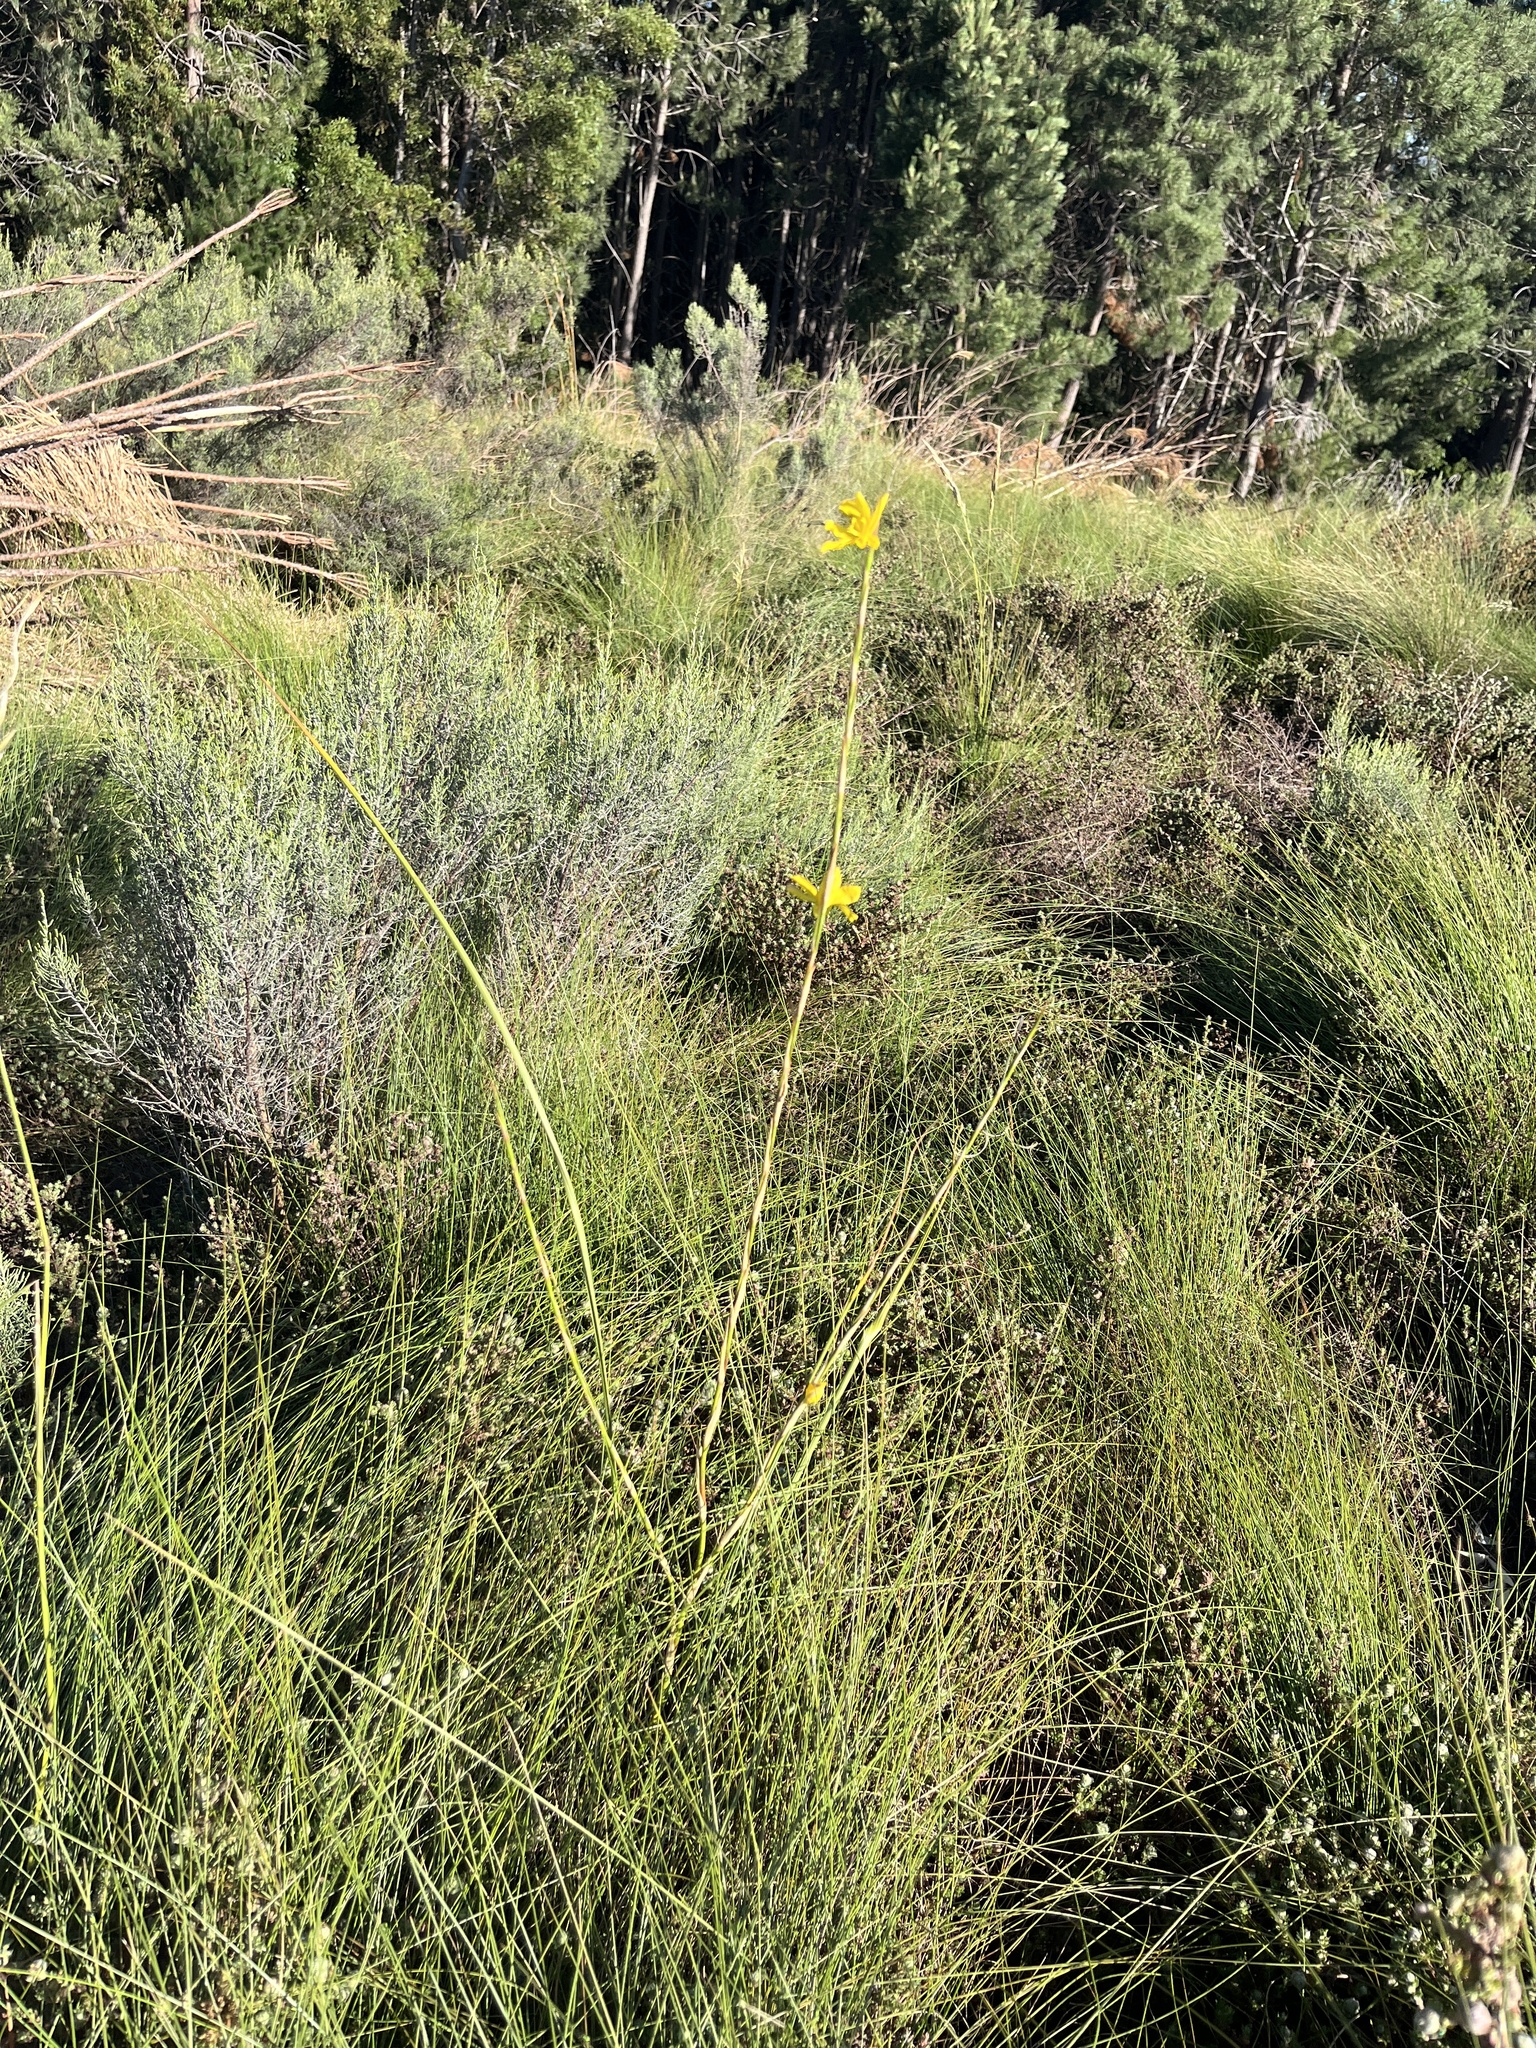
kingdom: Plantae
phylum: Tracheophyta
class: Liliopsida
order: Asparagales
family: Iridaceae
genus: Moraea
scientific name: Moraea lewisiae
